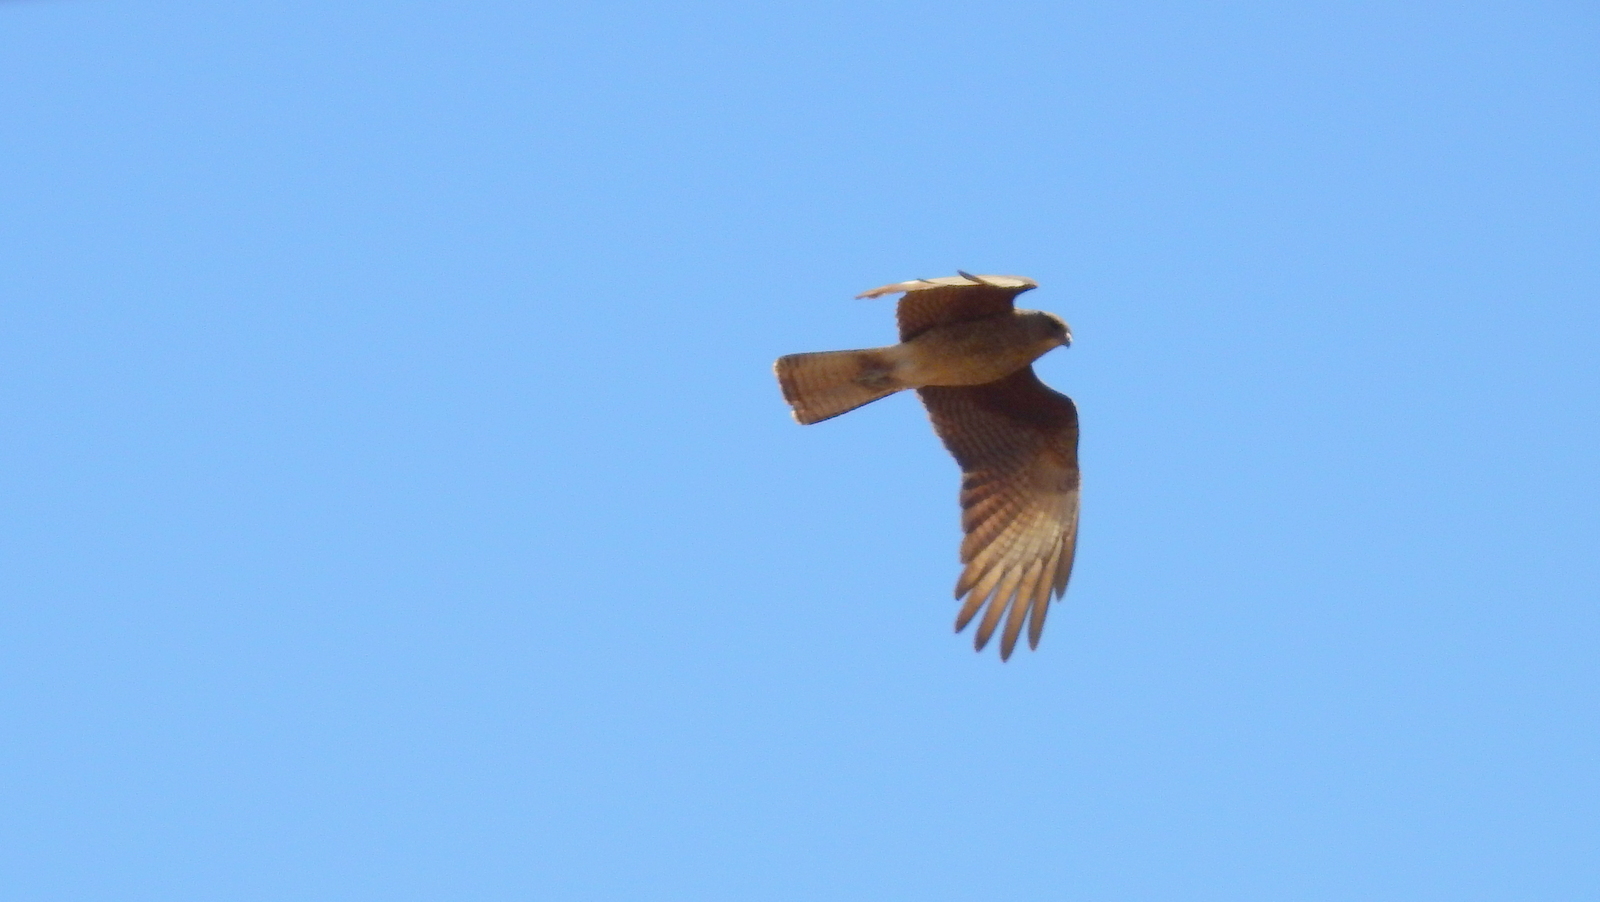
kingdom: Animalia
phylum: Chordata
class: Aves
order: Falconiformes
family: Falconidae
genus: Daptrius
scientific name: Daptrius
